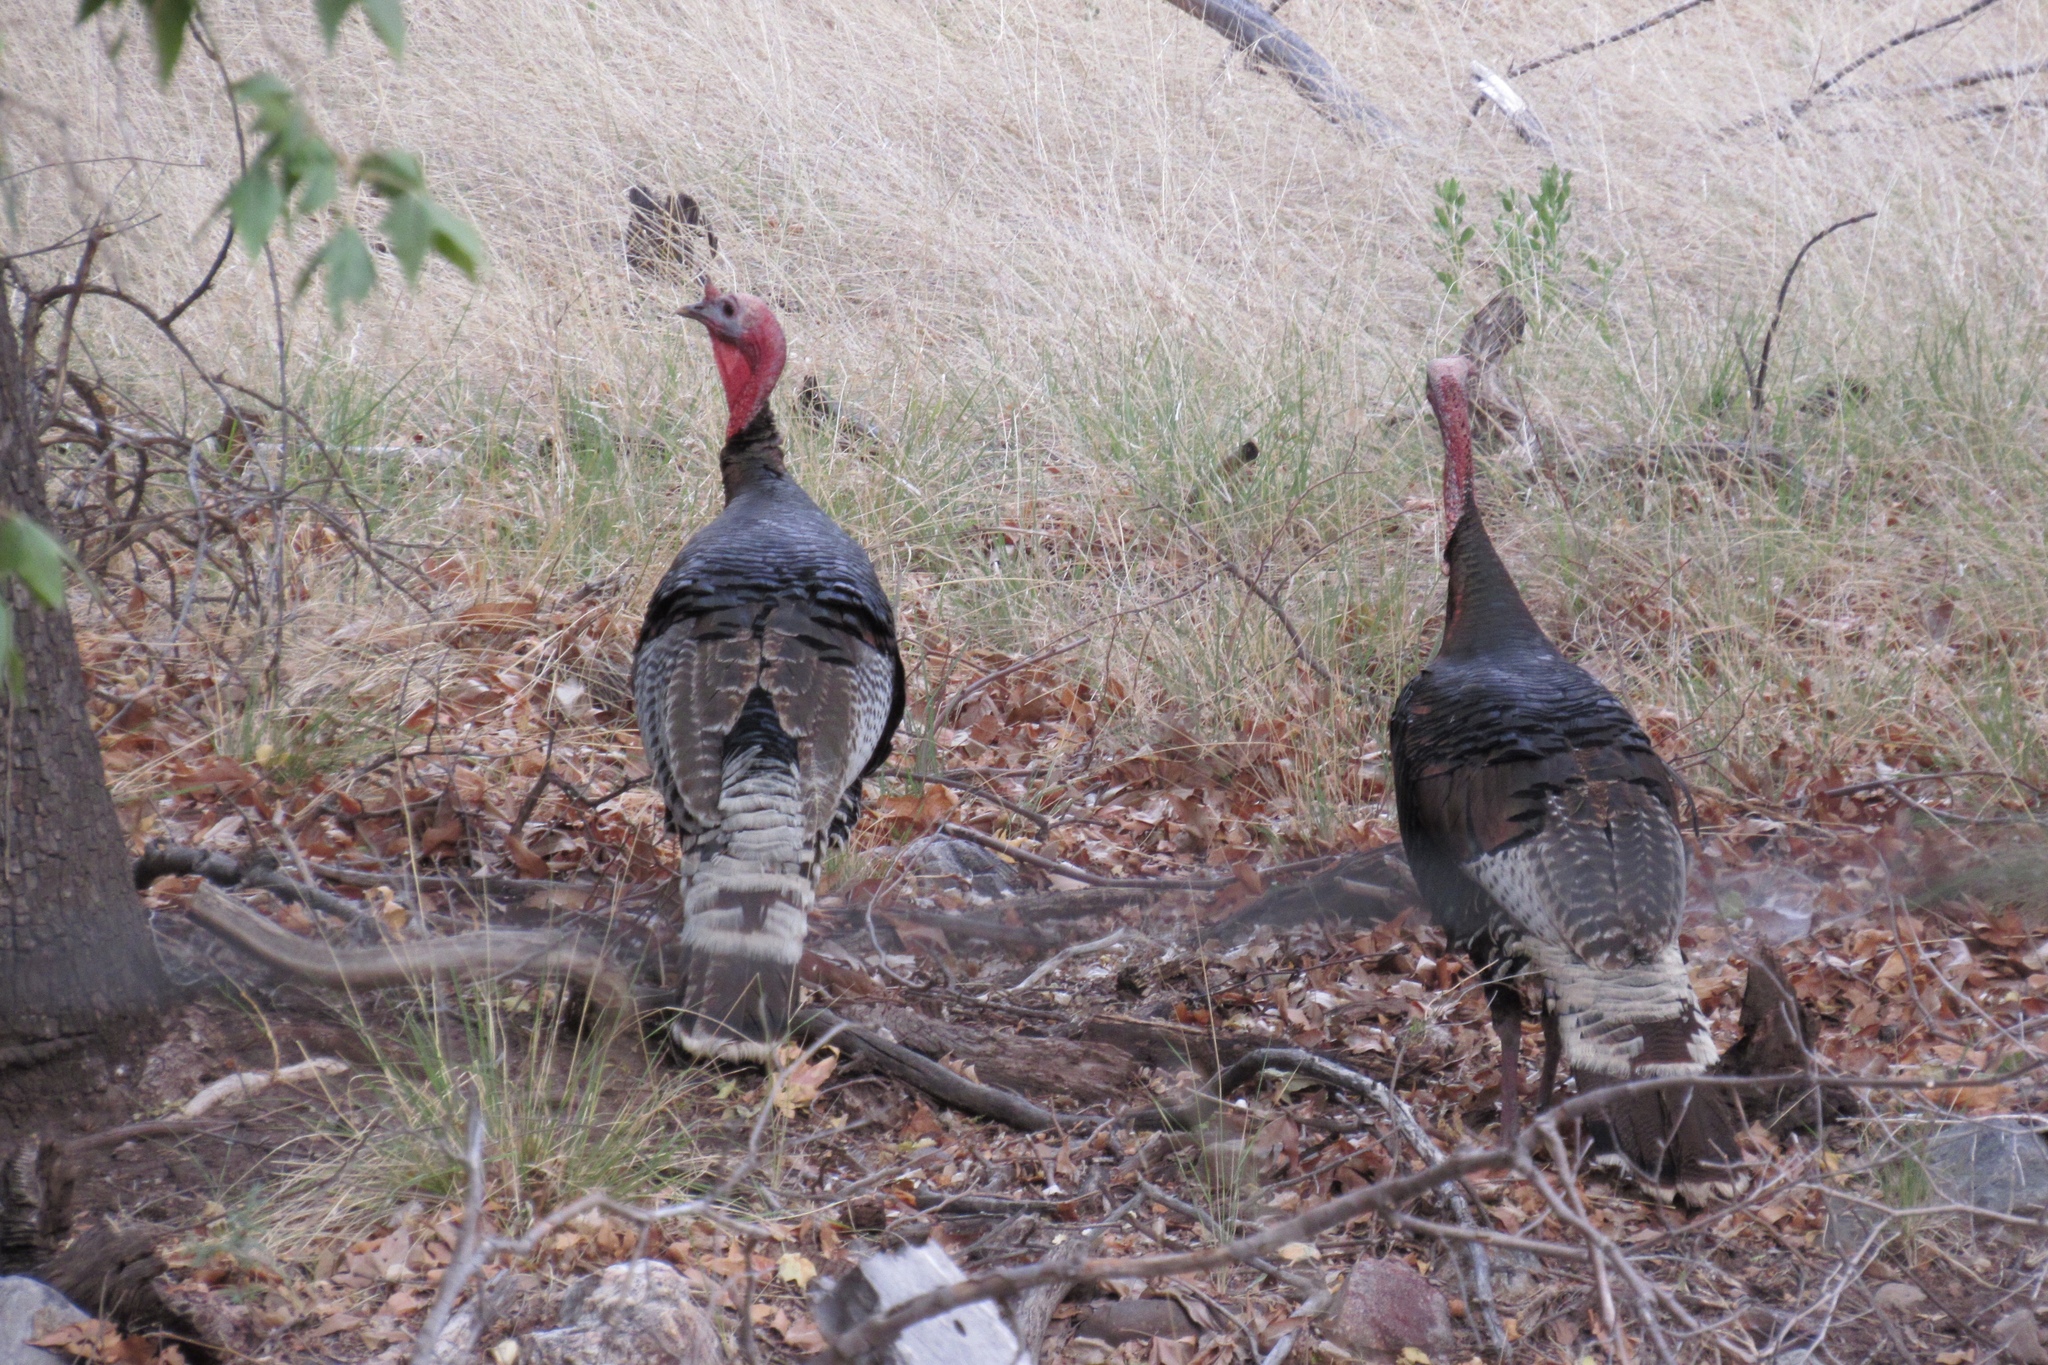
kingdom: Animalia
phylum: Chordata
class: Aves
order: Galliformes
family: Phasianidae
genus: Meleagris
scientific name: Meleagris gallopavo
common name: Wild turkey
